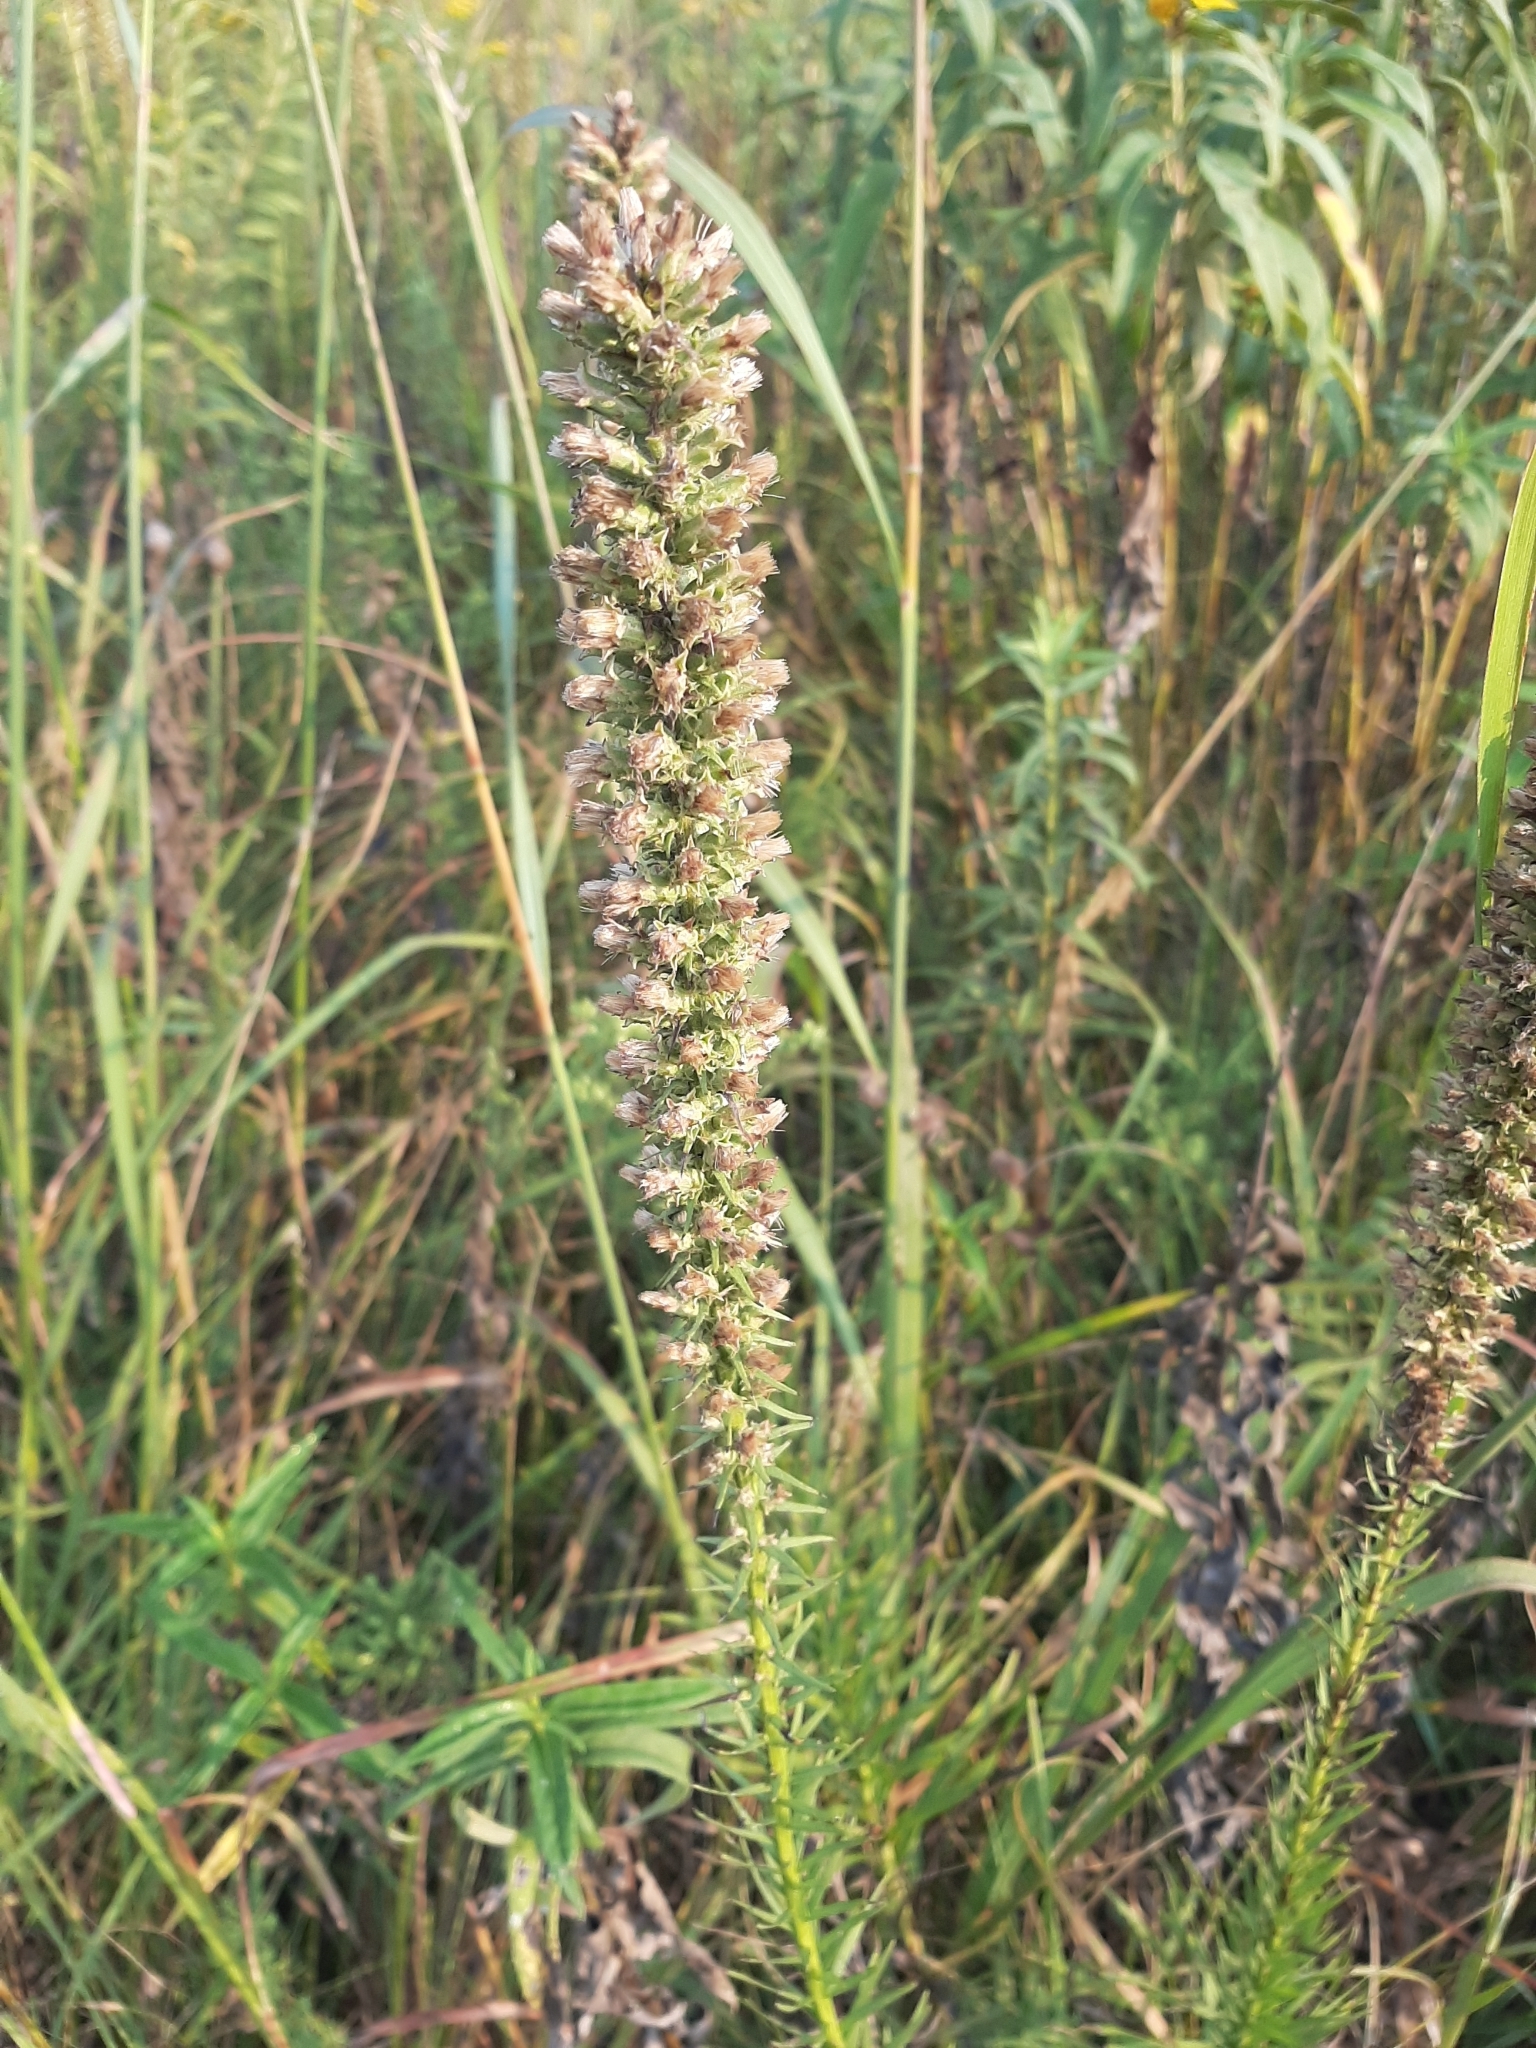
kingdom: Plantae
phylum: Tracheophyta
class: Magnoliopsida
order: Asterales
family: Asteraceae
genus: Liatris
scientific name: Liatris pycnostachya
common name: Cattail gayfeather
